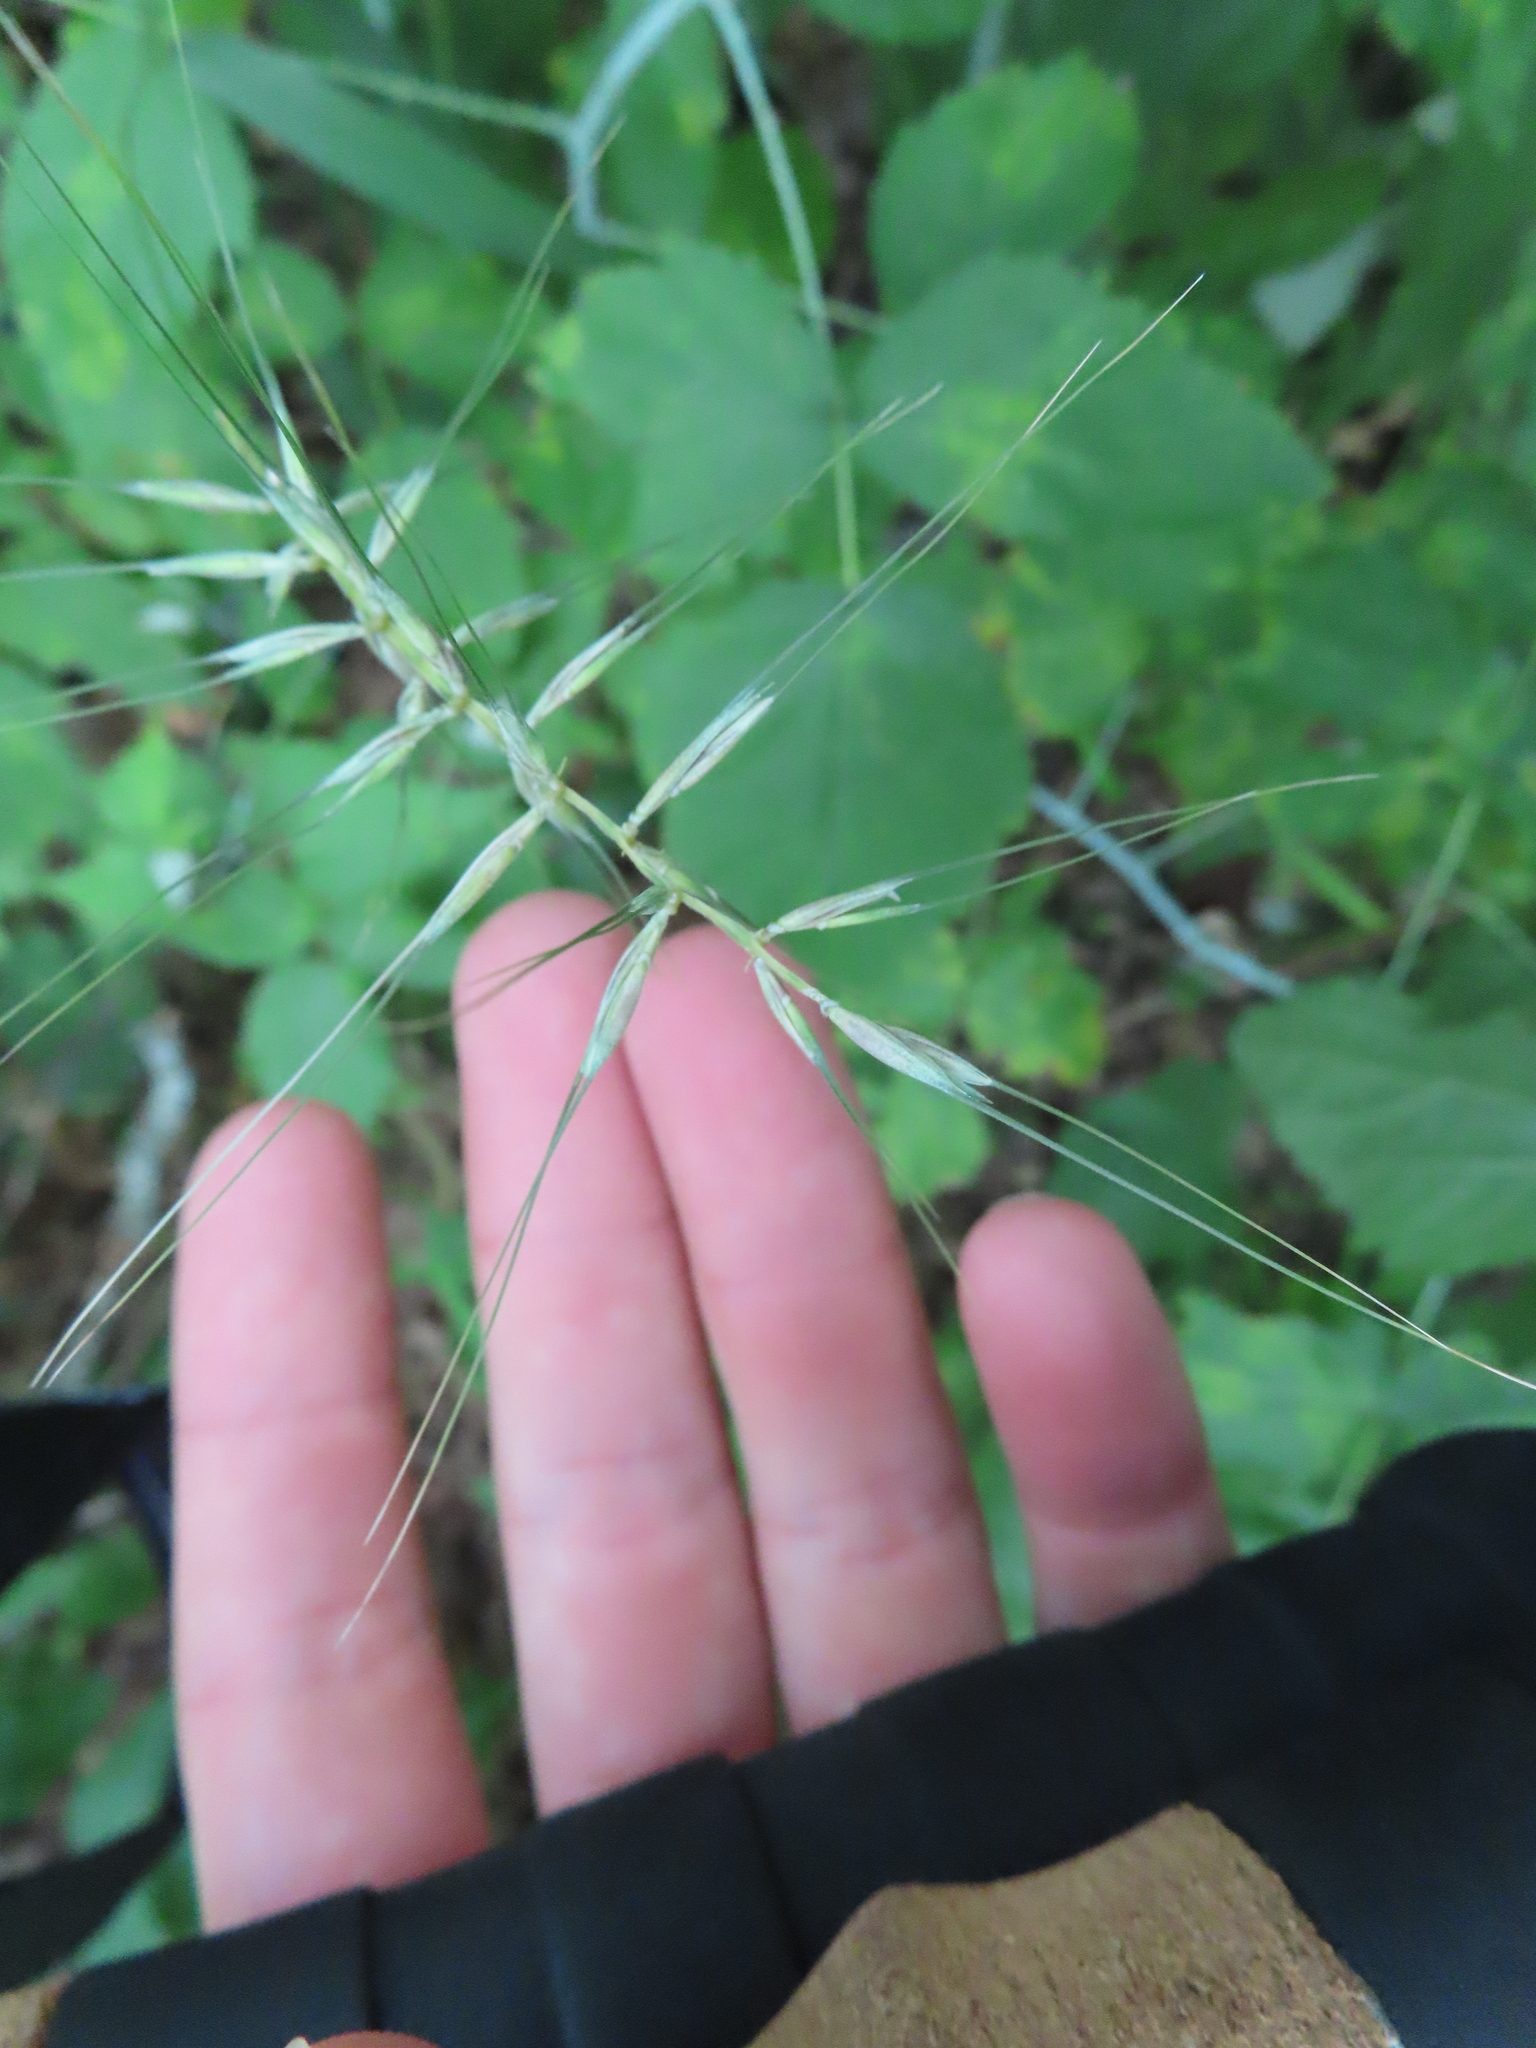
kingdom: Plantae
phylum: Tracheophyta
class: Liliopsida
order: Poales
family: Poaceae
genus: Elymus
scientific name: Elymus hystrix
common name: Bottlebrush grass
